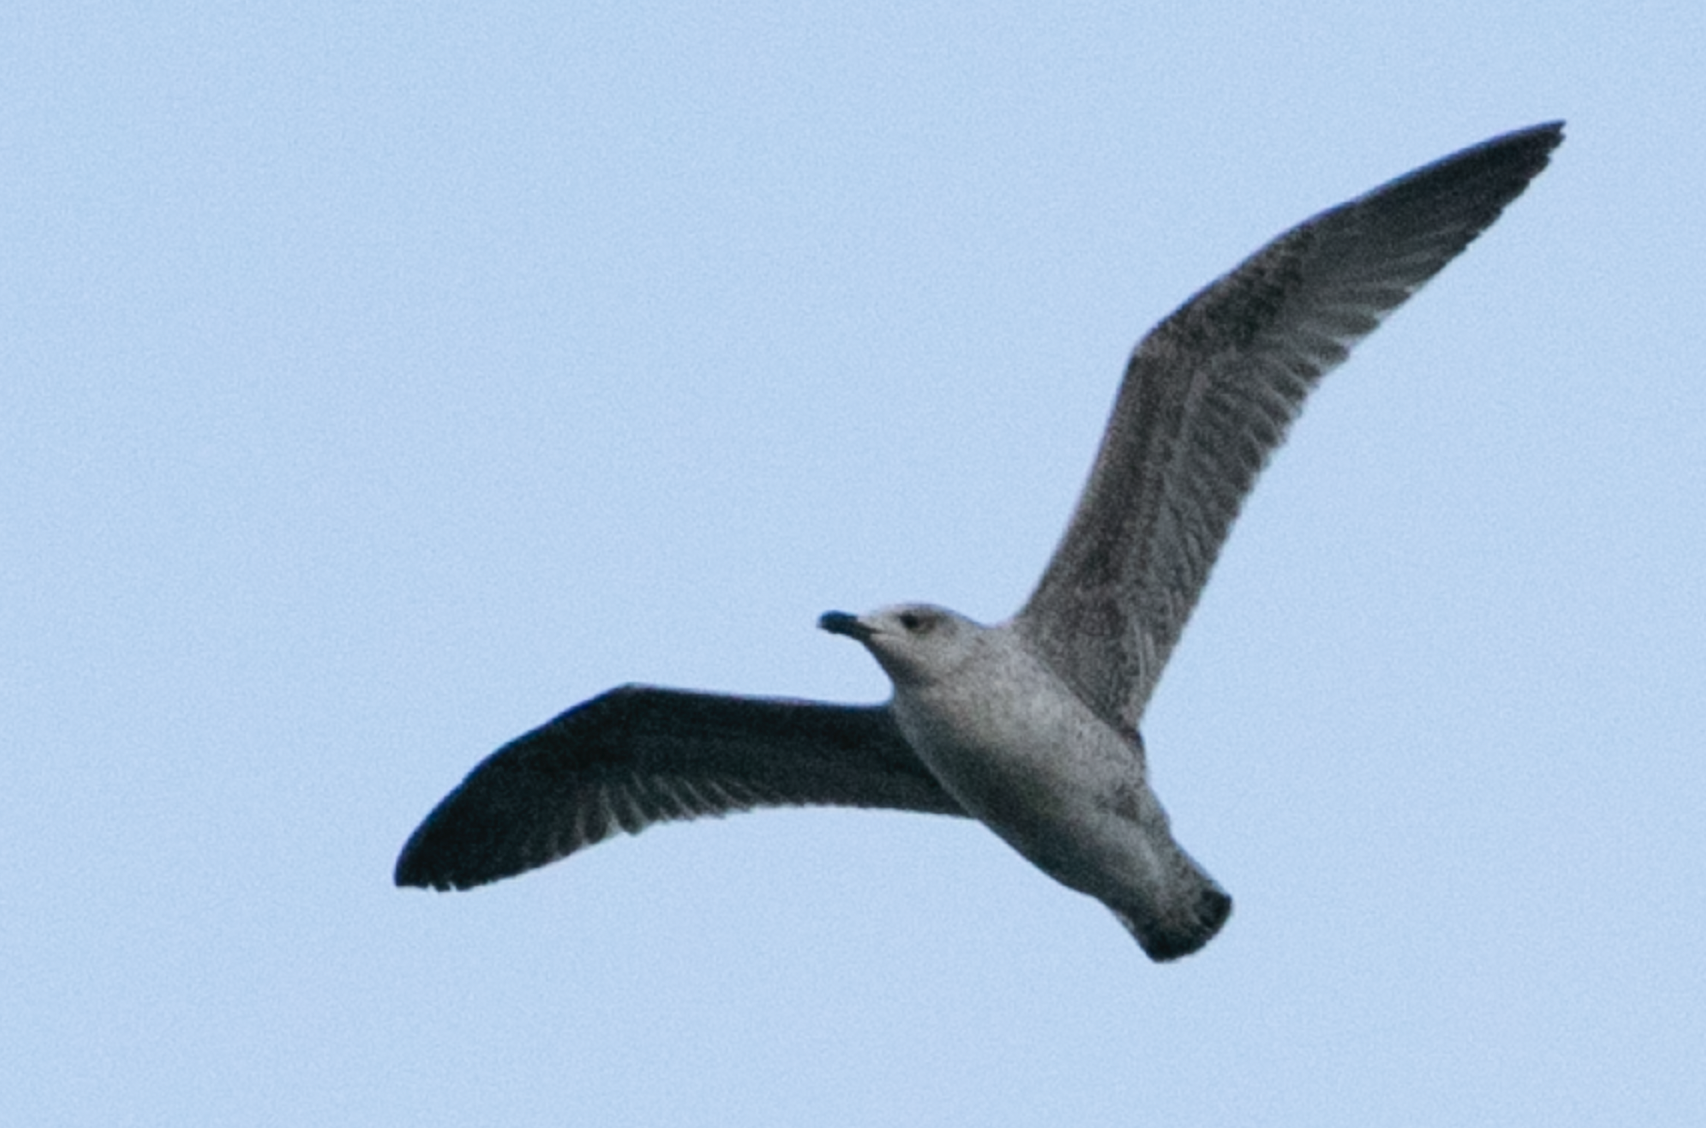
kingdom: Animalia
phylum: Chordata
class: Aves
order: Charadriiformes
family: Laridae
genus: Larus
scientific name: Larus michahellis
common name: Yellow-legged gull
